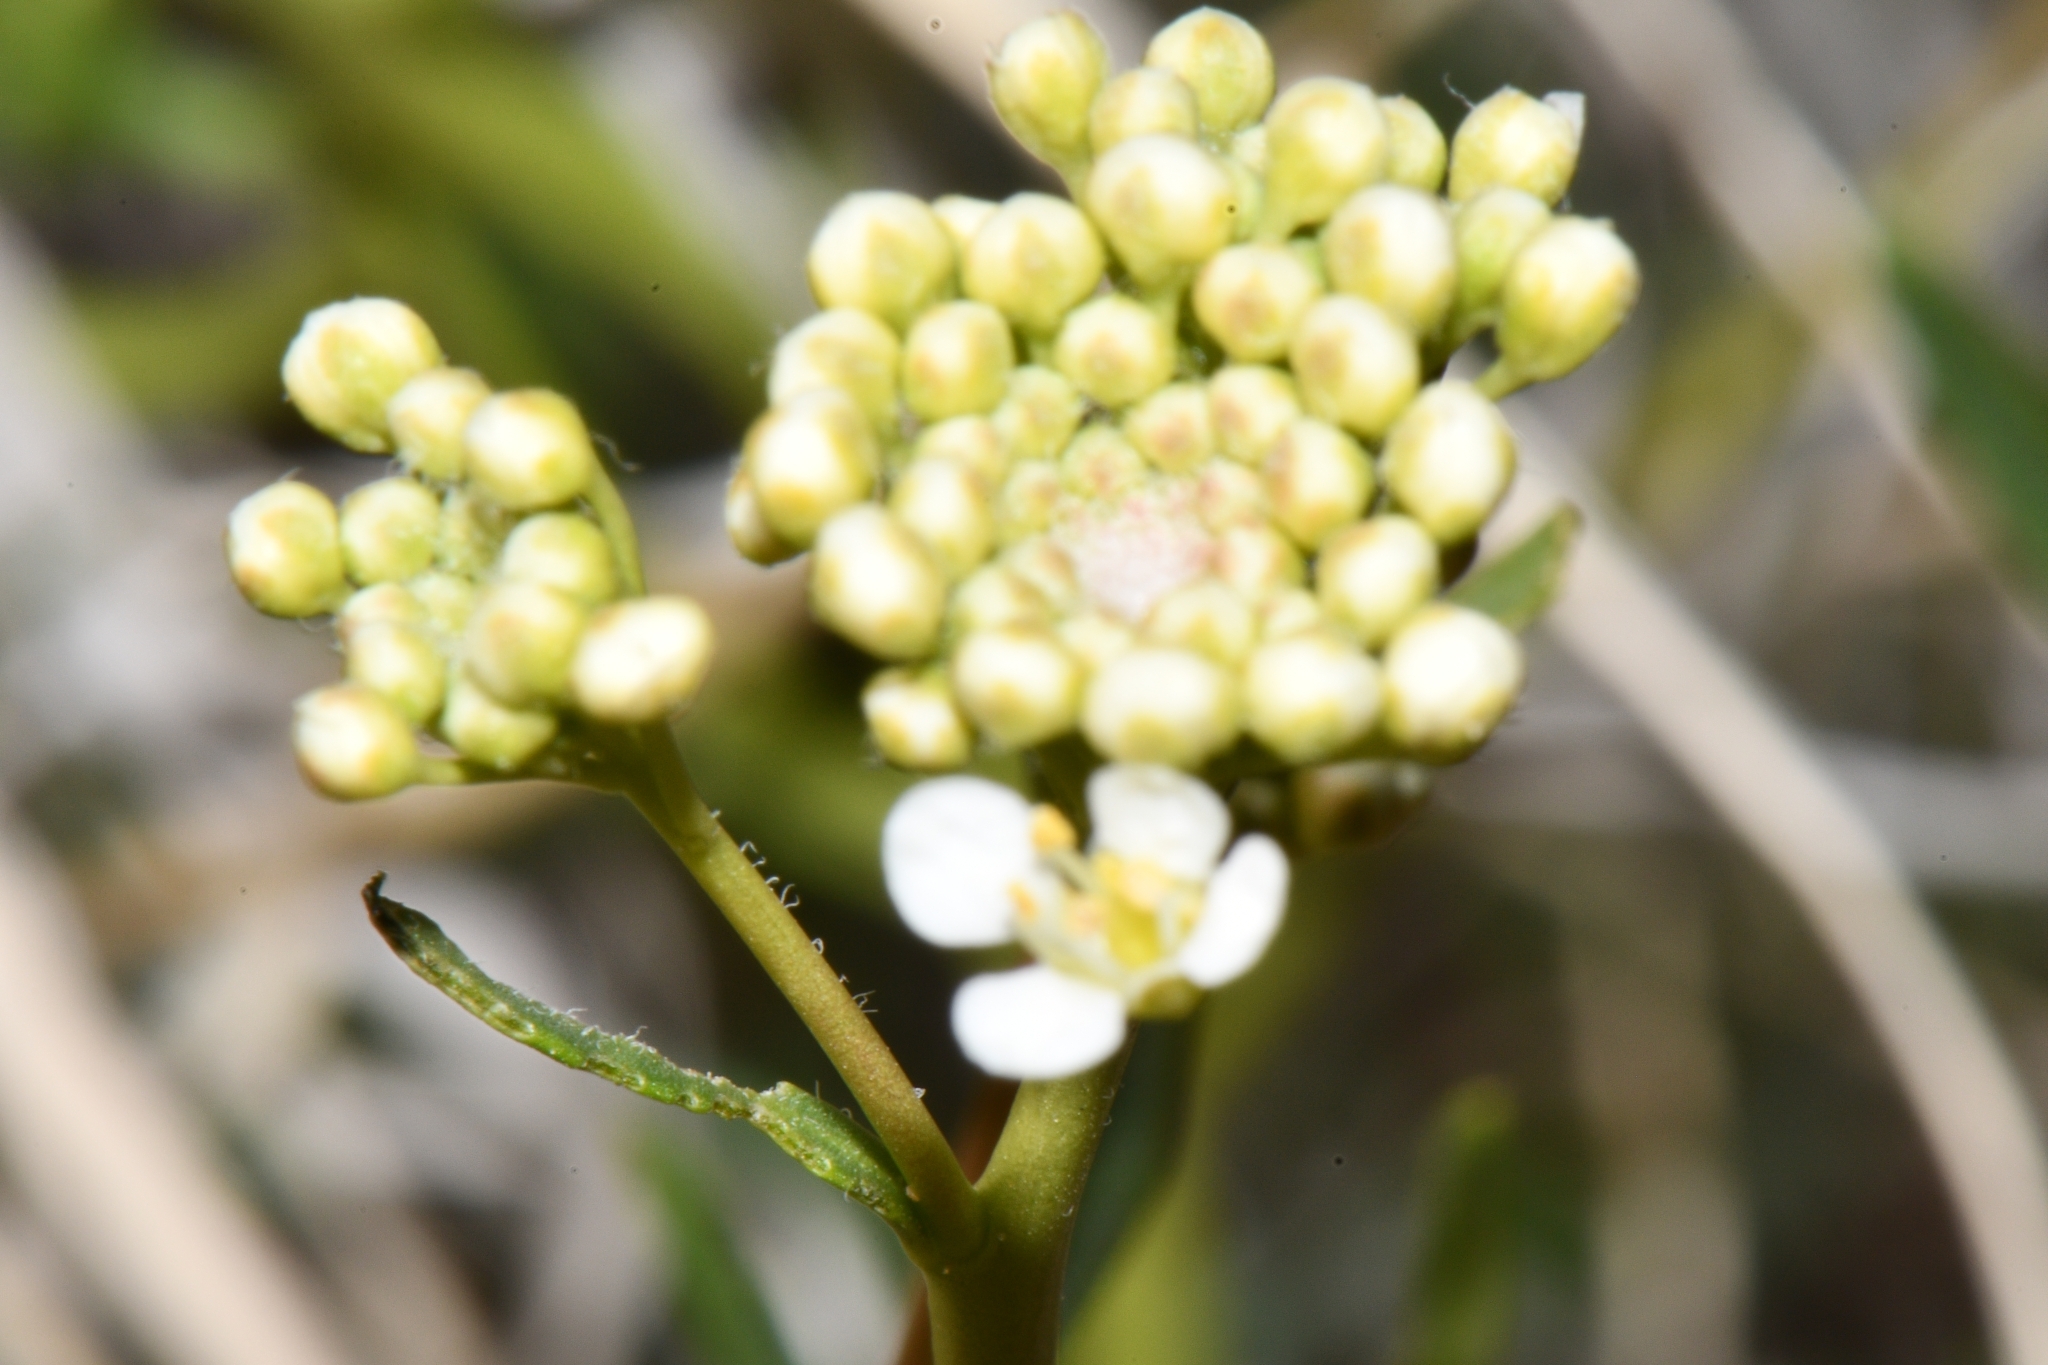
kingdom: Plantae
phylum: Tracheophyta
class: Magnoliopsida
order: Brassicales
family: Brassicaceae
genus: Lepidium
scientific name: Lepidium montanum
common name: Mountain pepperplant
